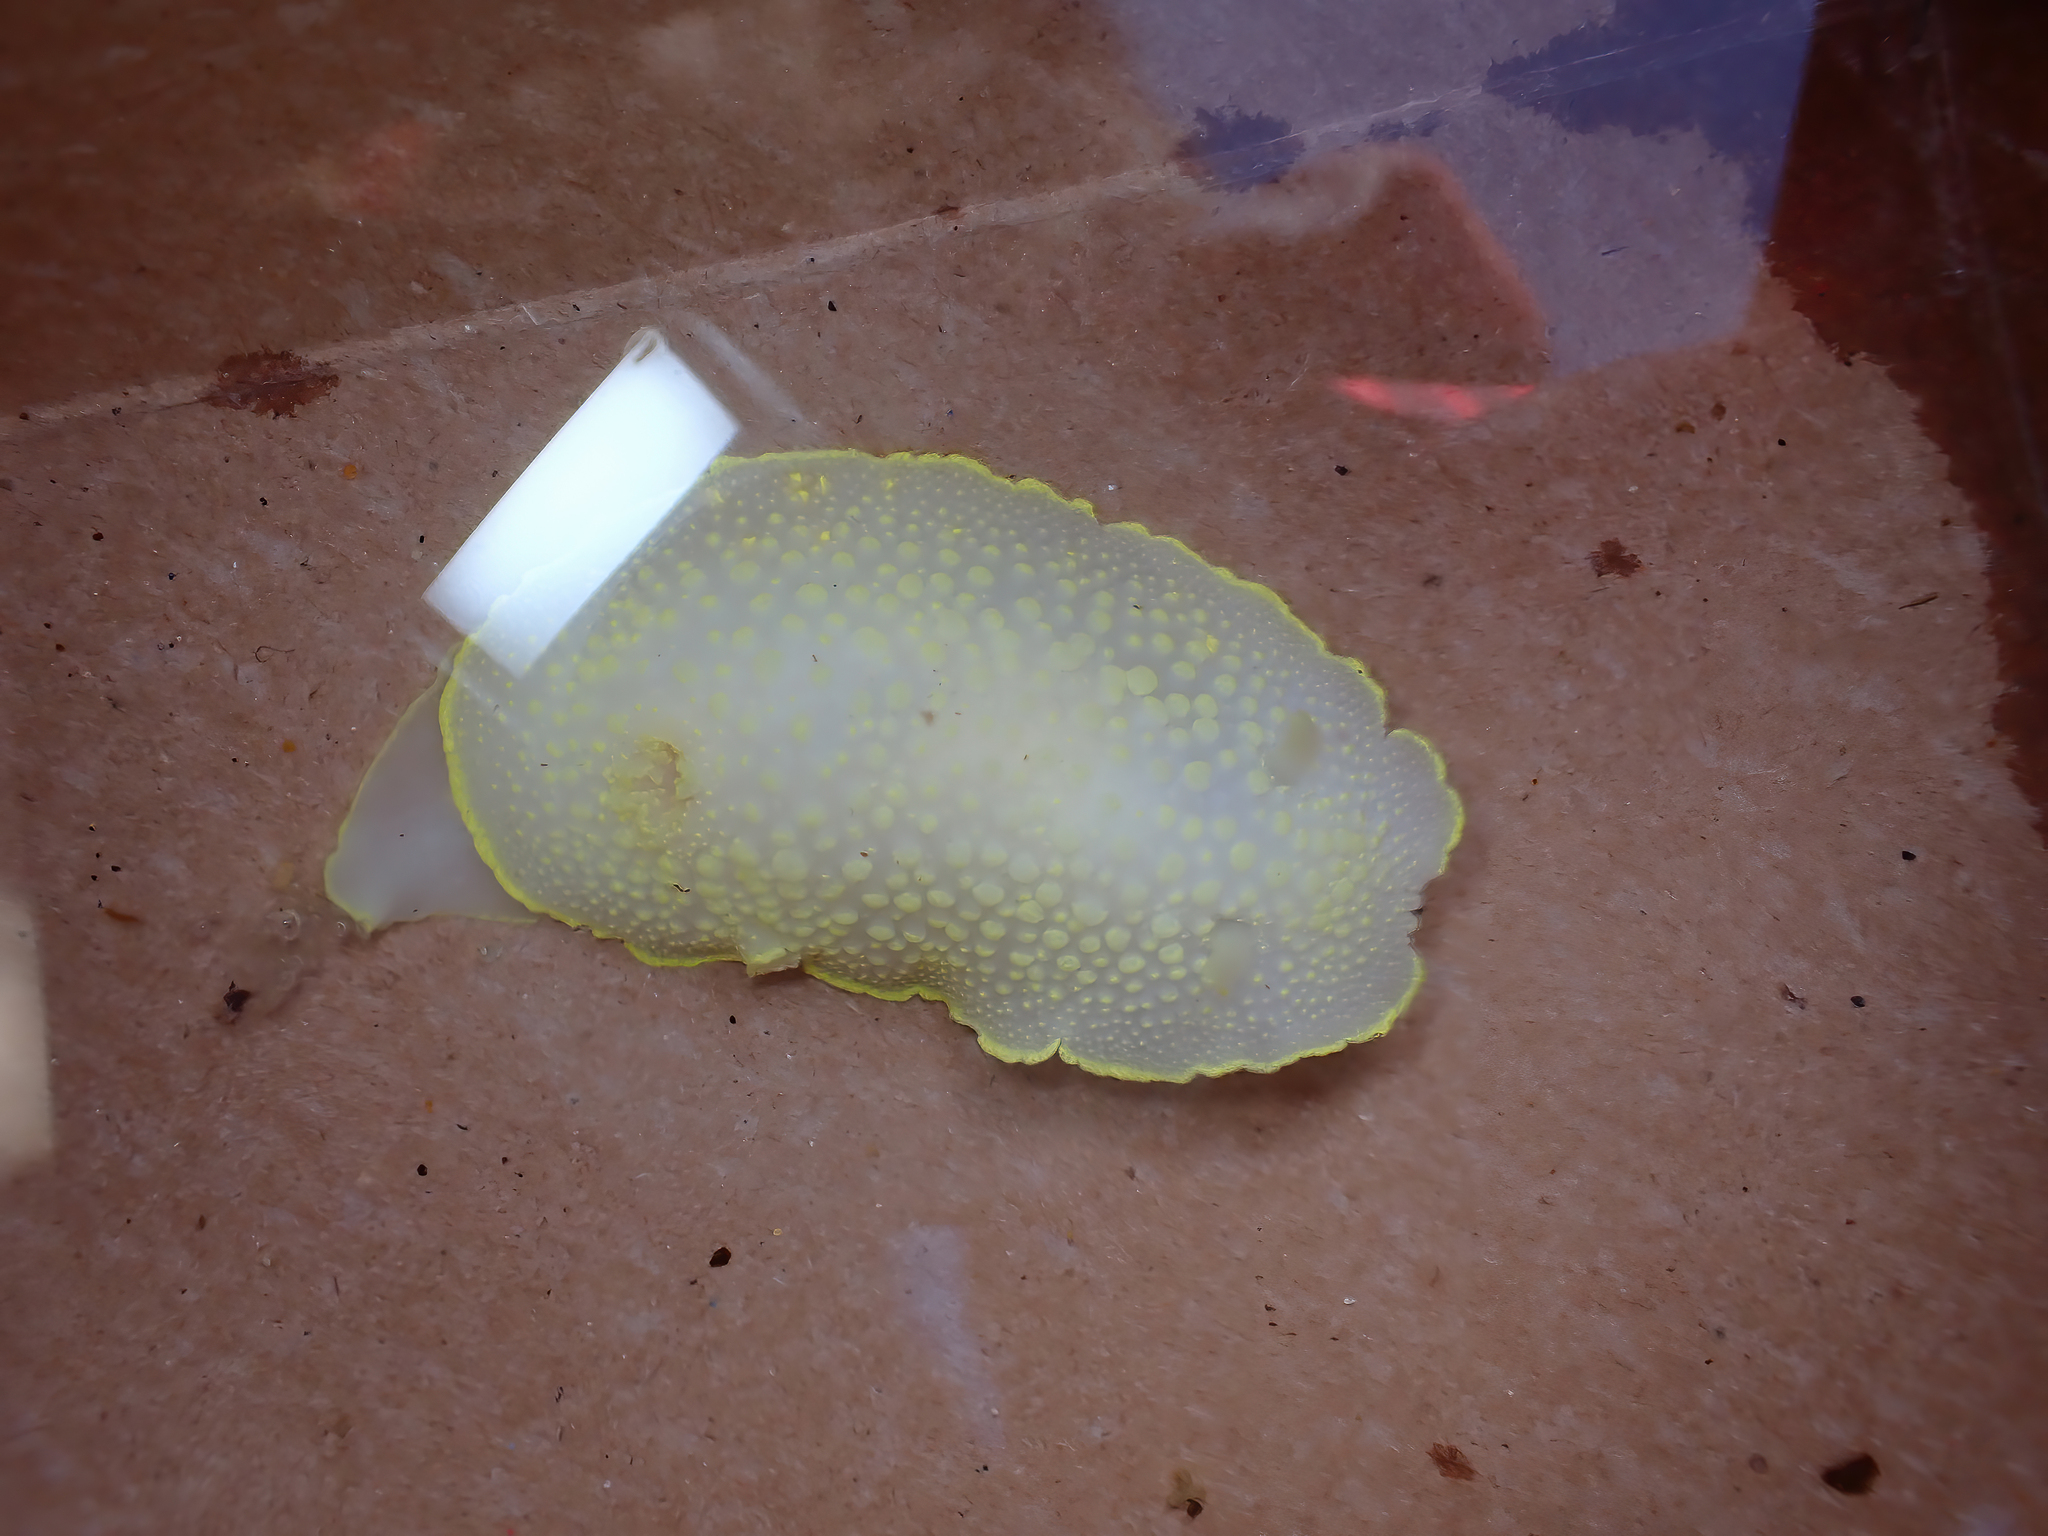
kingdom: Animalia
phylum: Mollusca
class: Gastropoda
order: Nudibranchia
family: Cadlinidae
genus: Cadlina
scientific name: Cadlina jannanicholsae
